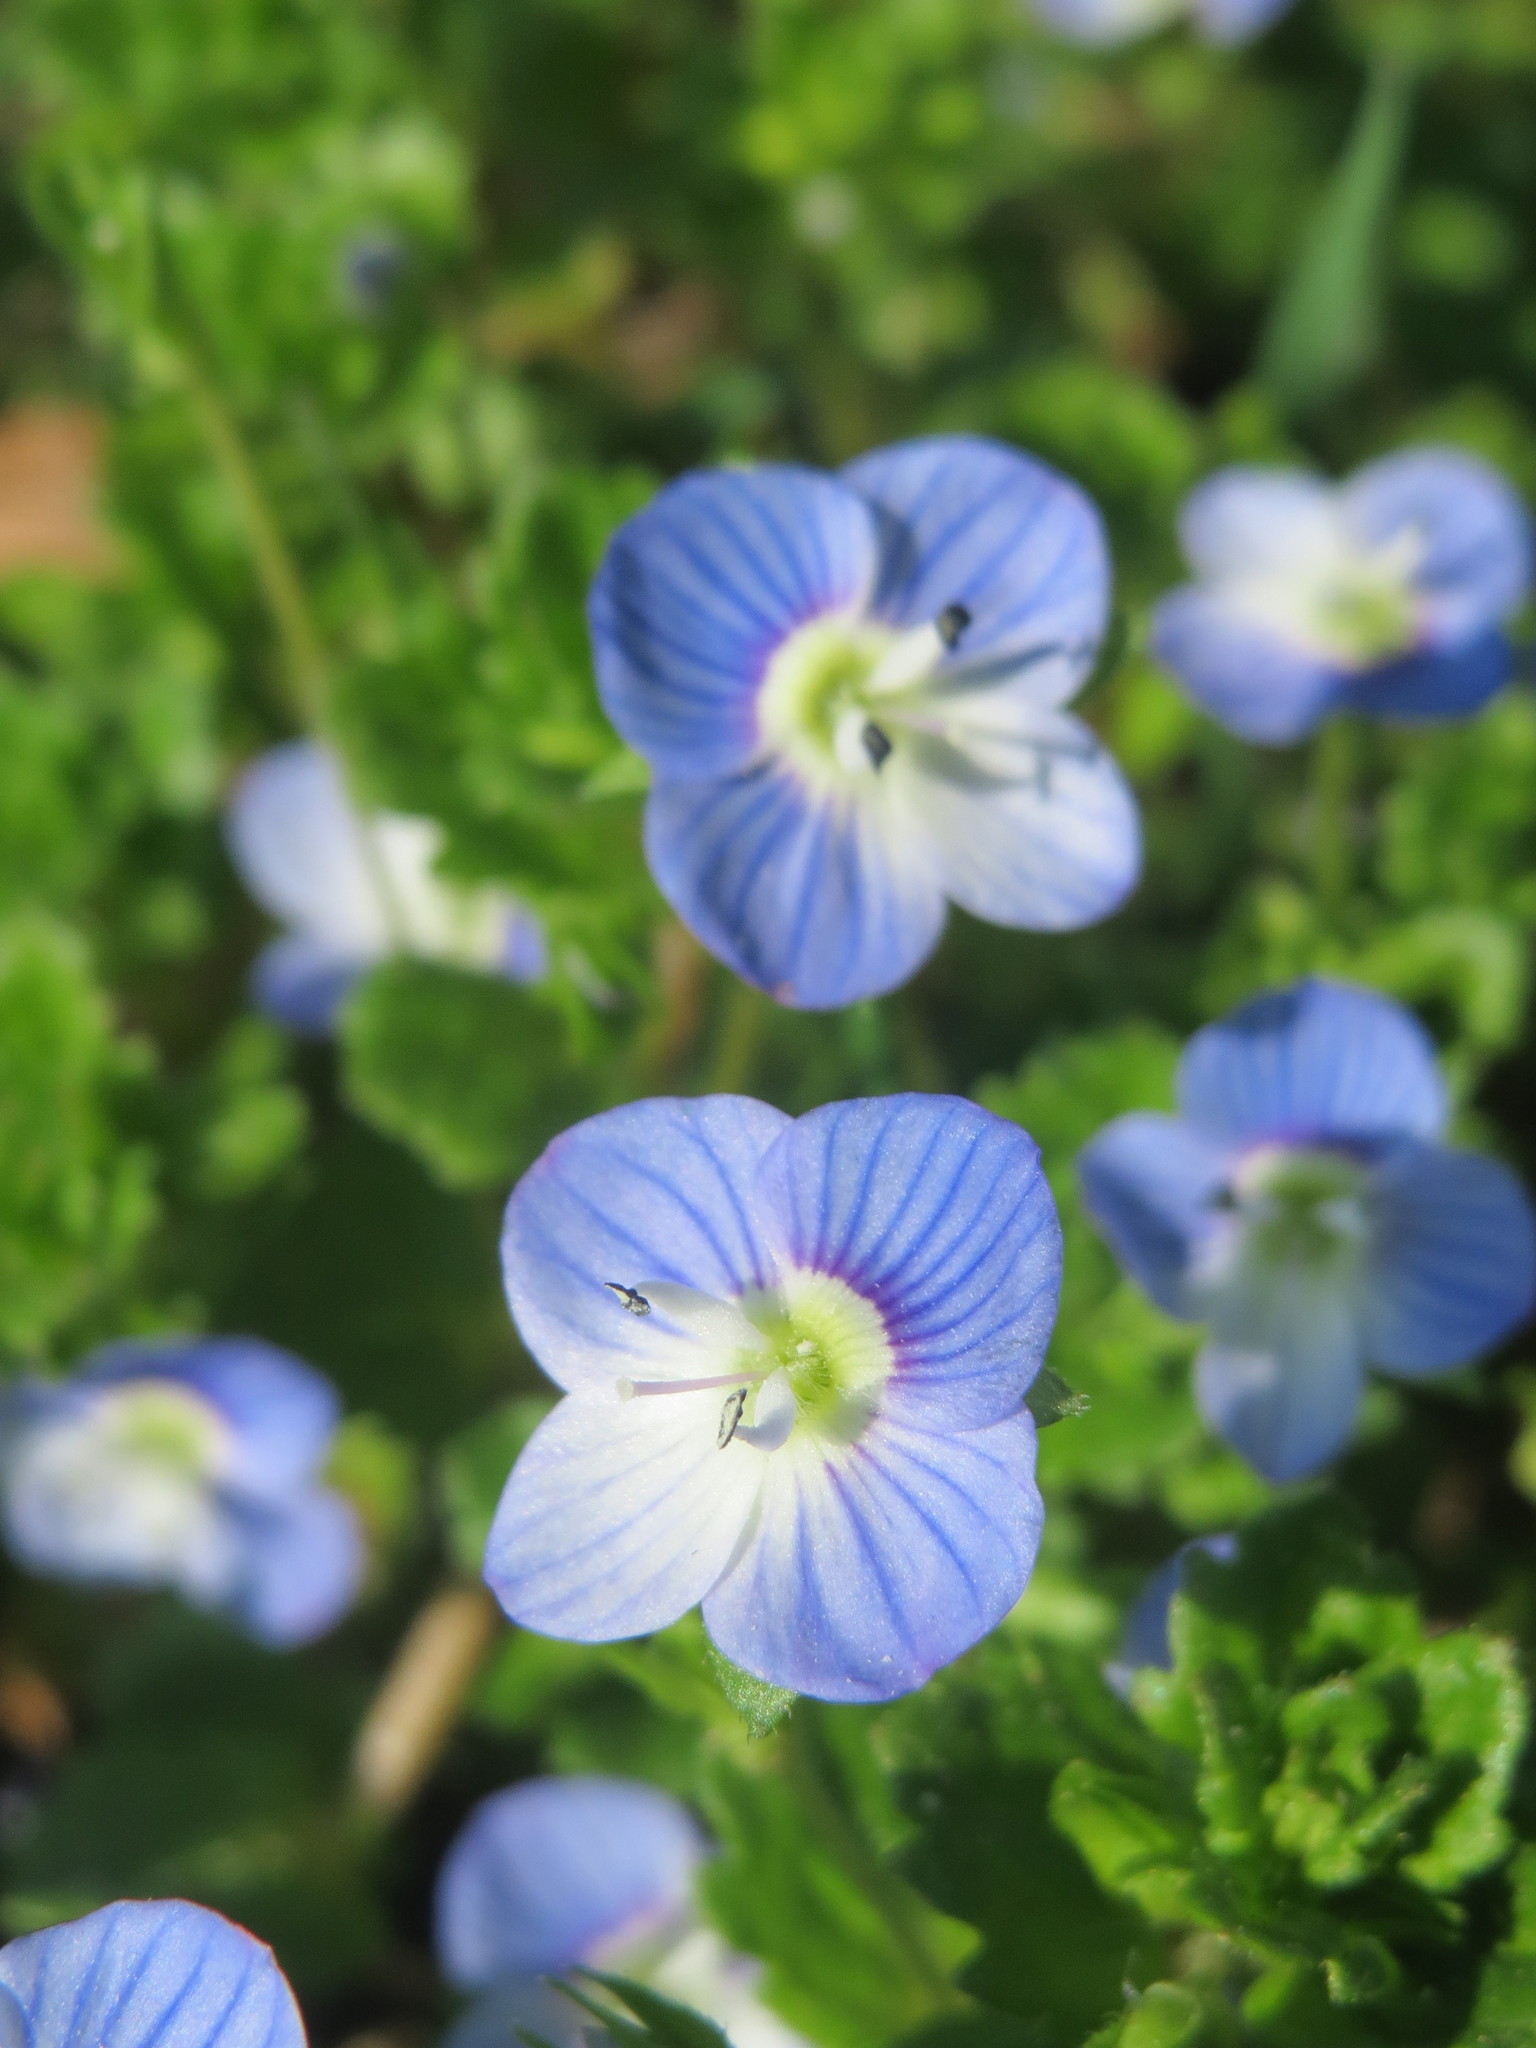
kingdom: Plantae
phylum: Tracheophyta
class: Magnoliopsida
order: Lamiales
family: Plantaginaceae
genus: Veronica
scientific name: Veronica persica
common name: Common field-speedwell
